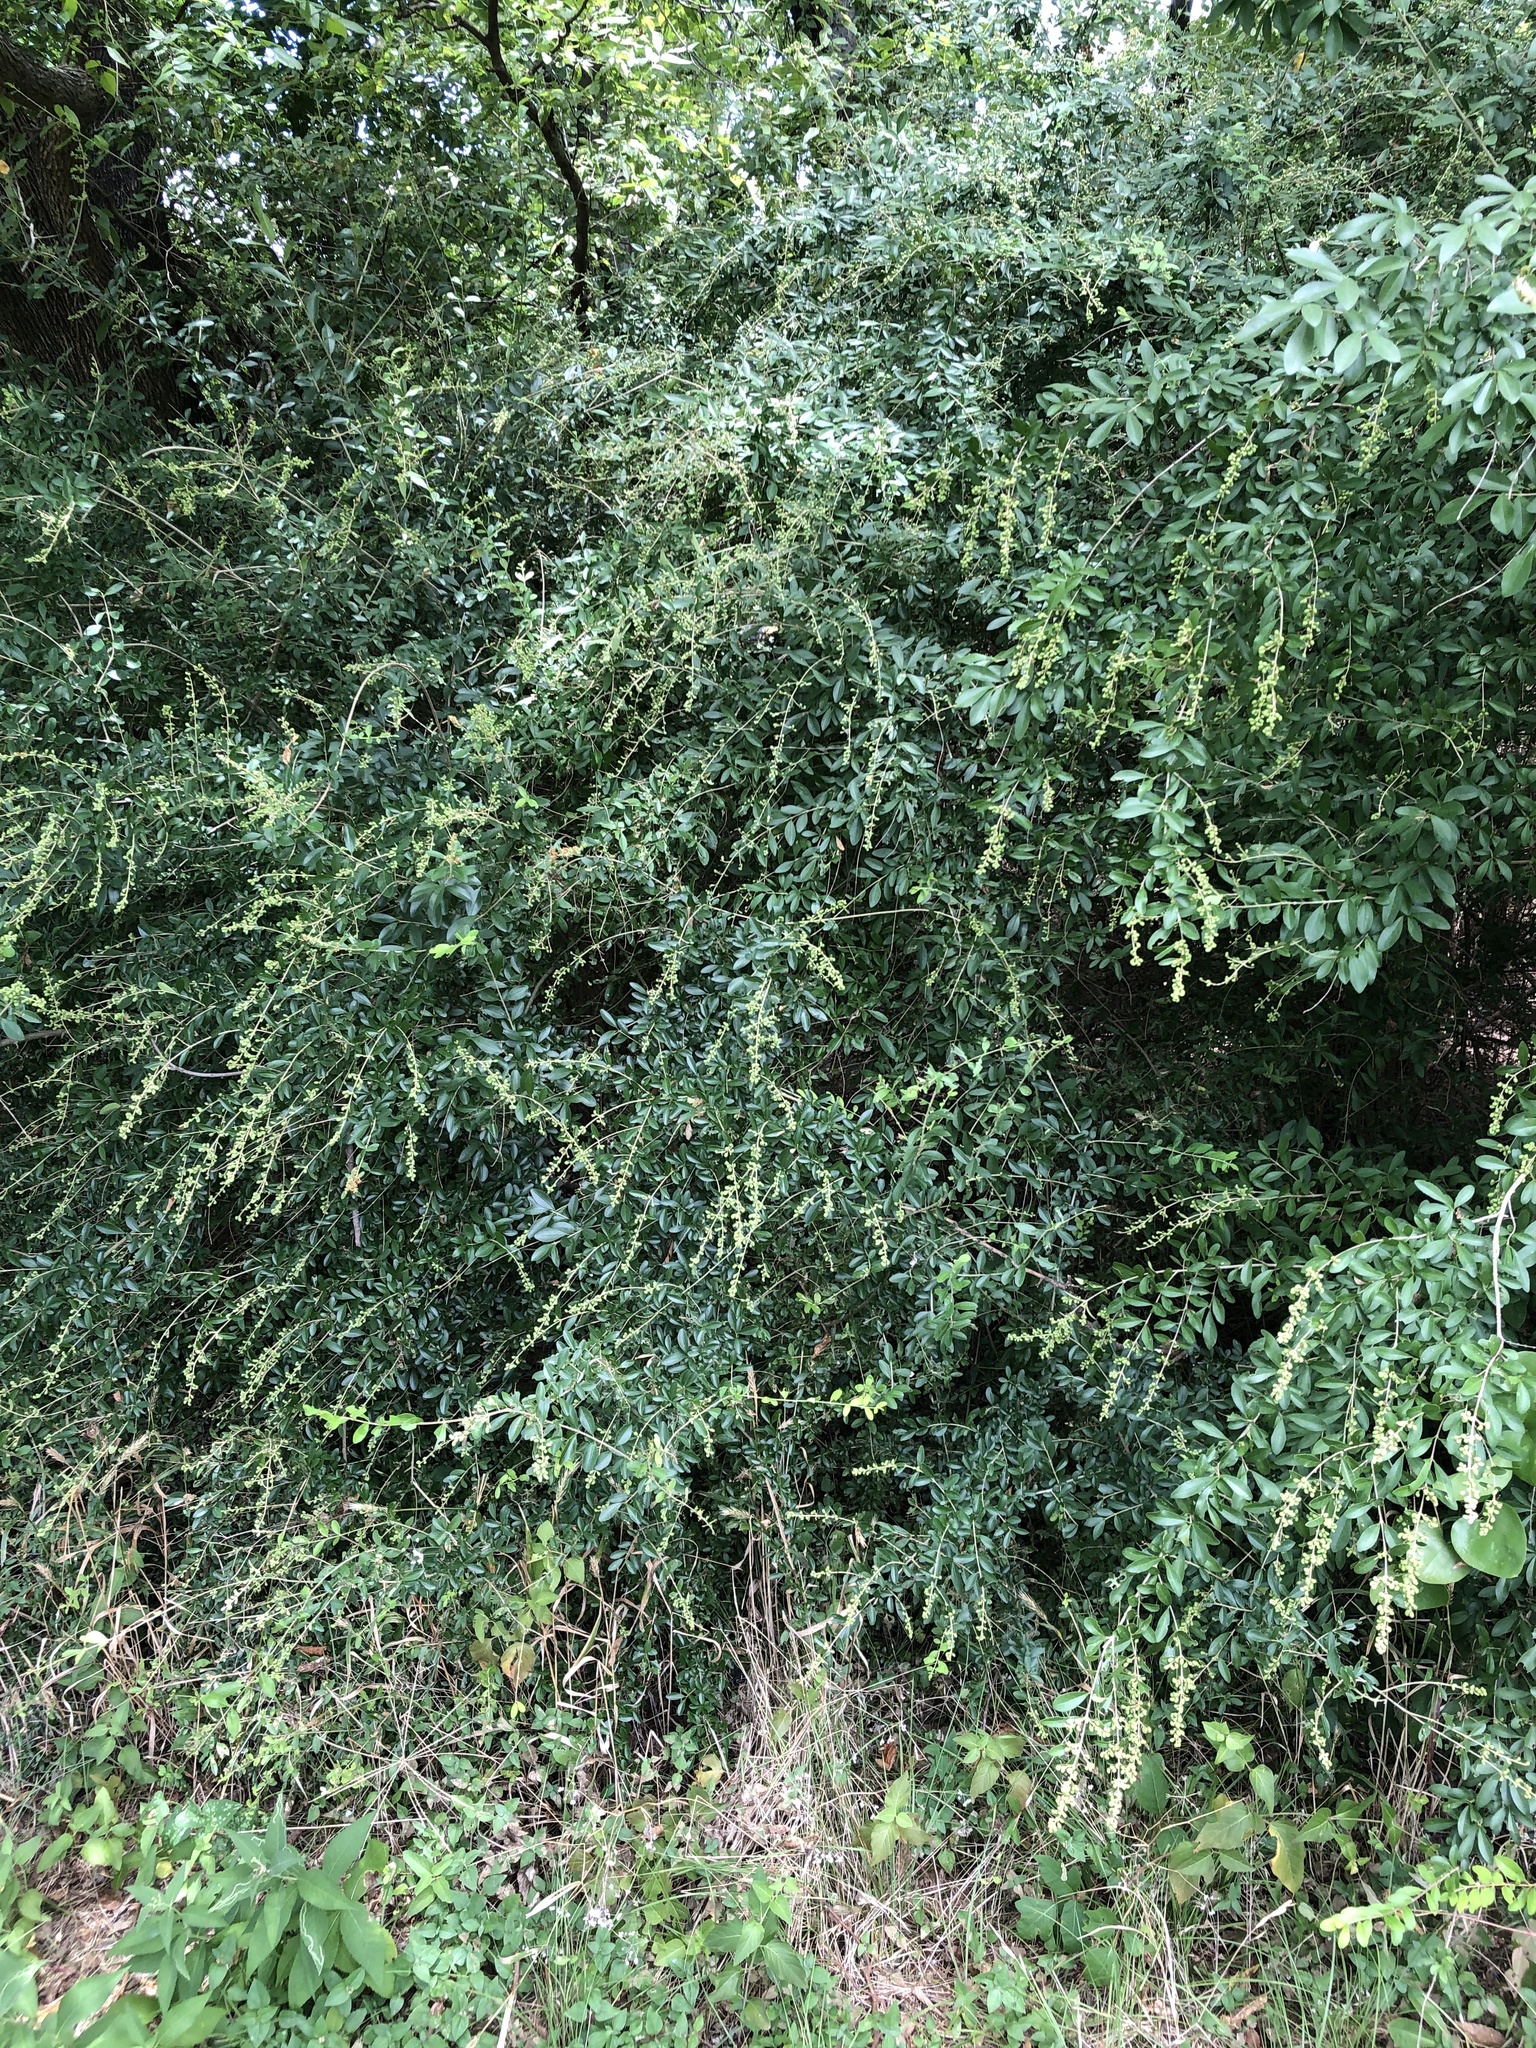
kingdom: Plantae
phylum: Tracheophyta
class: Magnoliopsida
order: Lamiales
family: Oleaceae
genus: Ligustrum
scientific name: Ligustrum quihoui
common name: Waxyleaf privet
